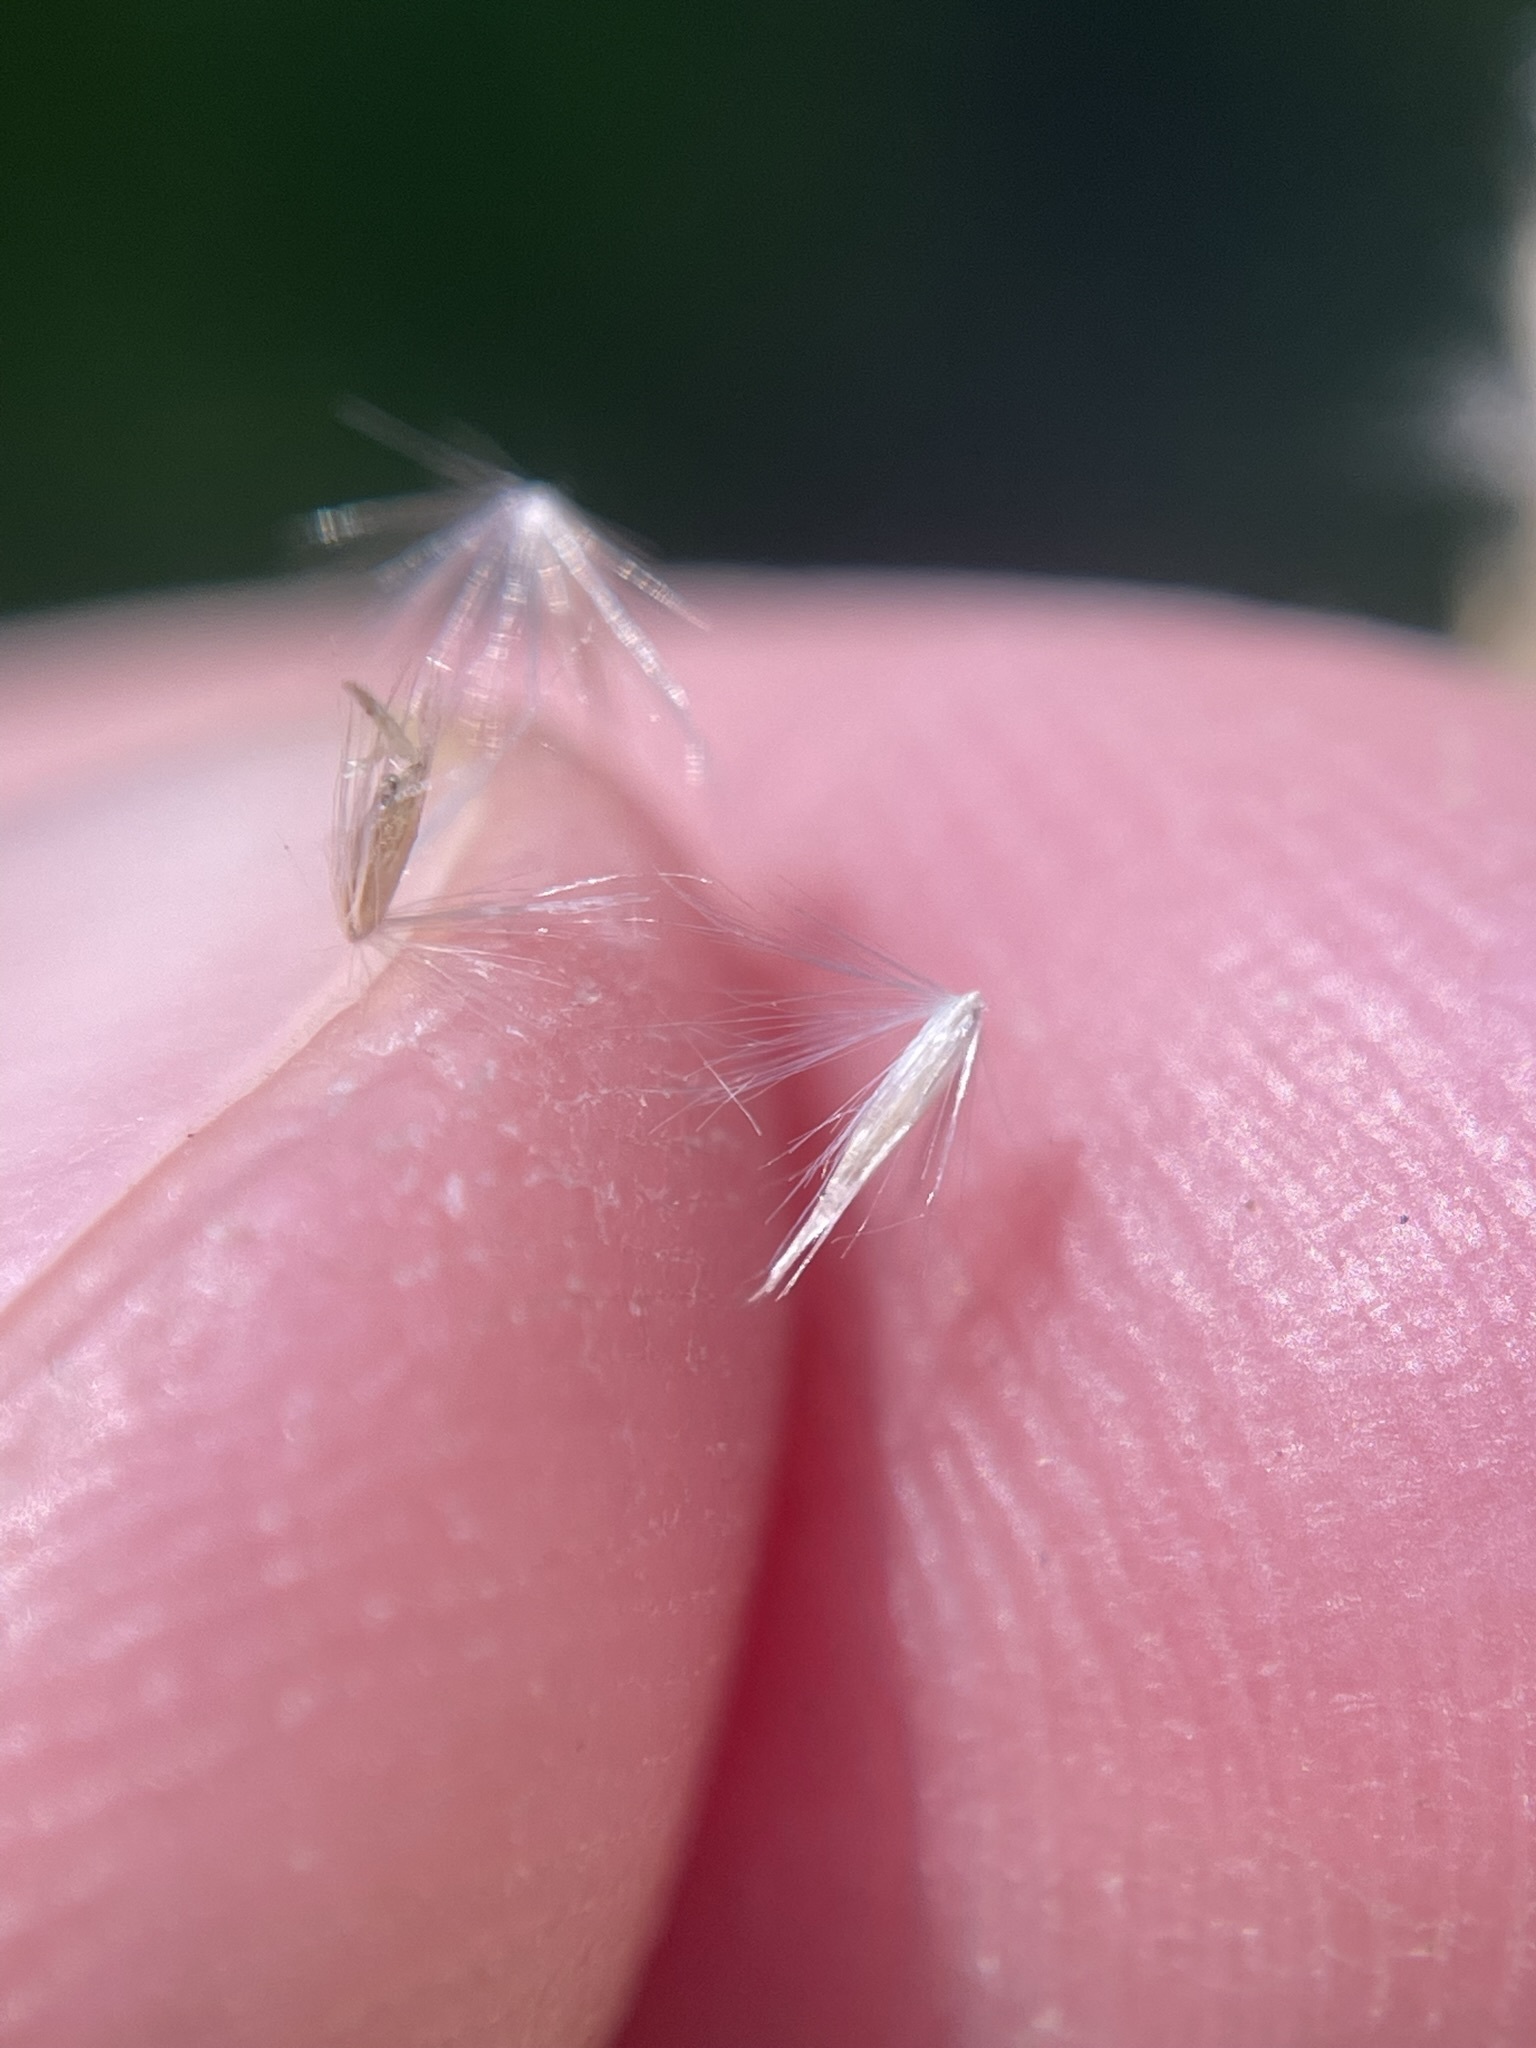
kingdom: Plantae
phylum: Tracheophyta
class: Liliopsida
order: Poales
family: Poaceae
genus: Calamagrostis
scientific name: Calamagrostis canadensis
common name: Canada bluejoint
